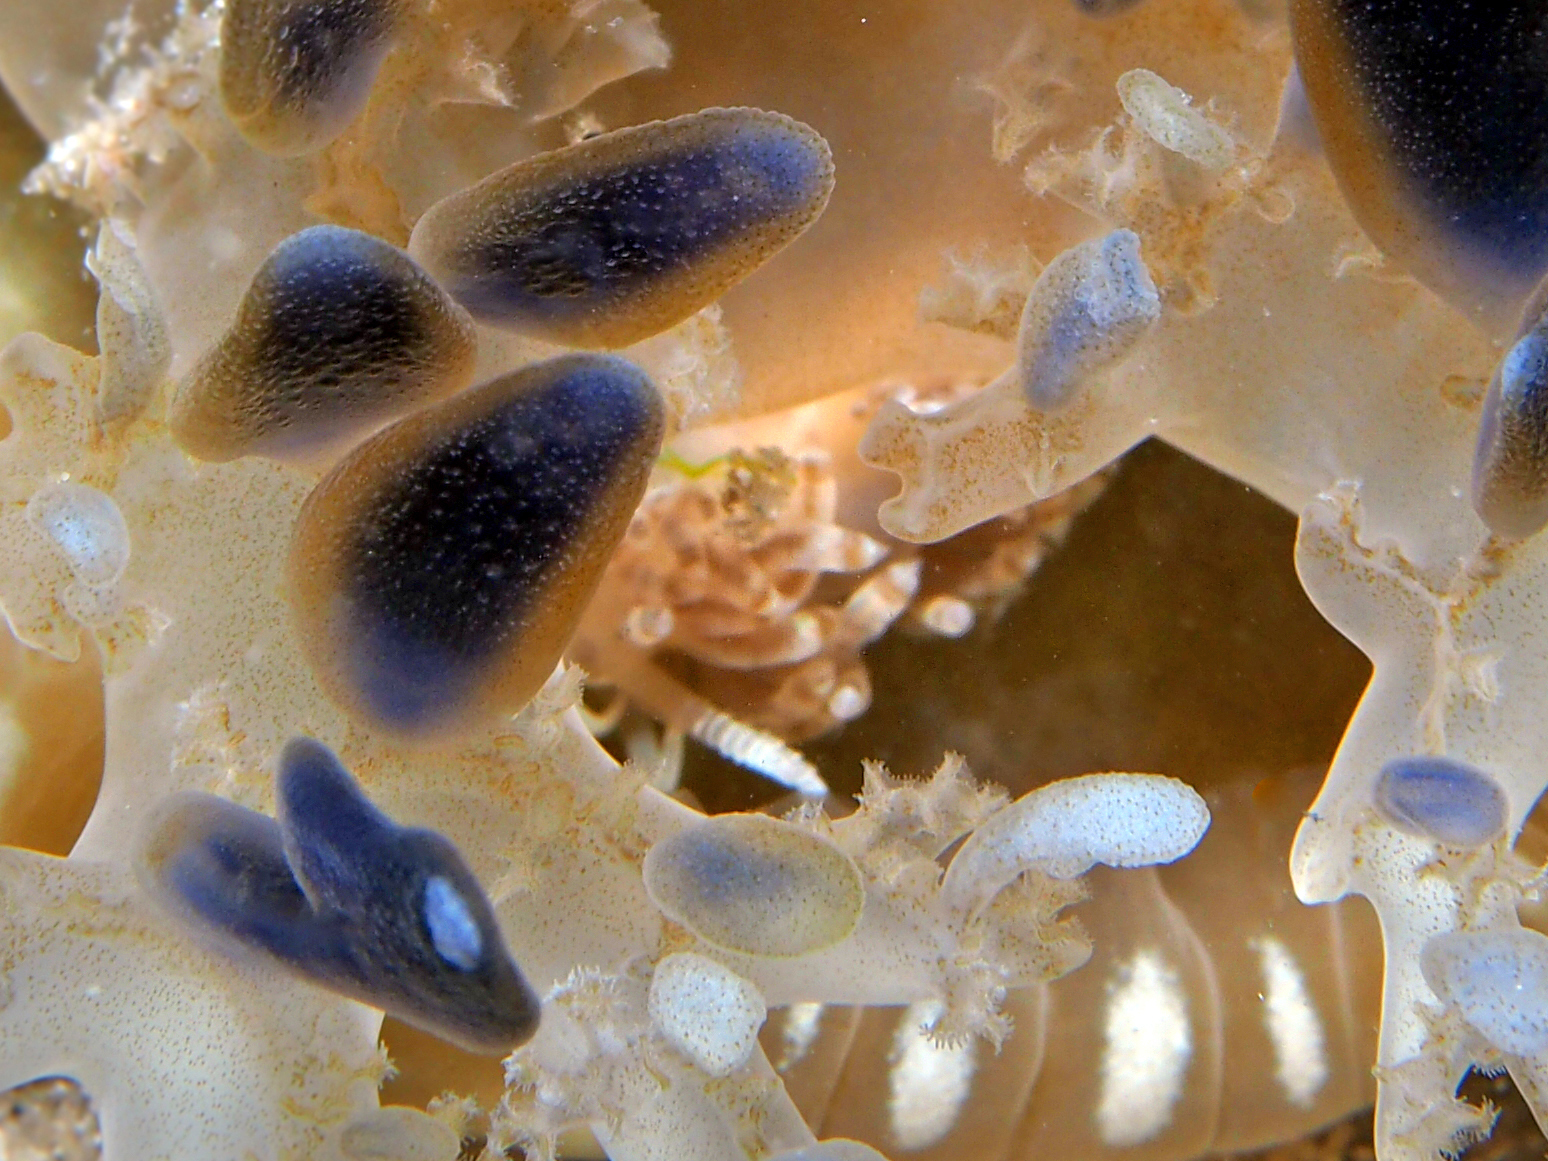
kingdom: Animalia
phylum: Mollusca
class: Gastropoda
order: Nudibranchia
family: Myrrhinidae
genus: Dondice
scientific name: Dondice parguerensis
